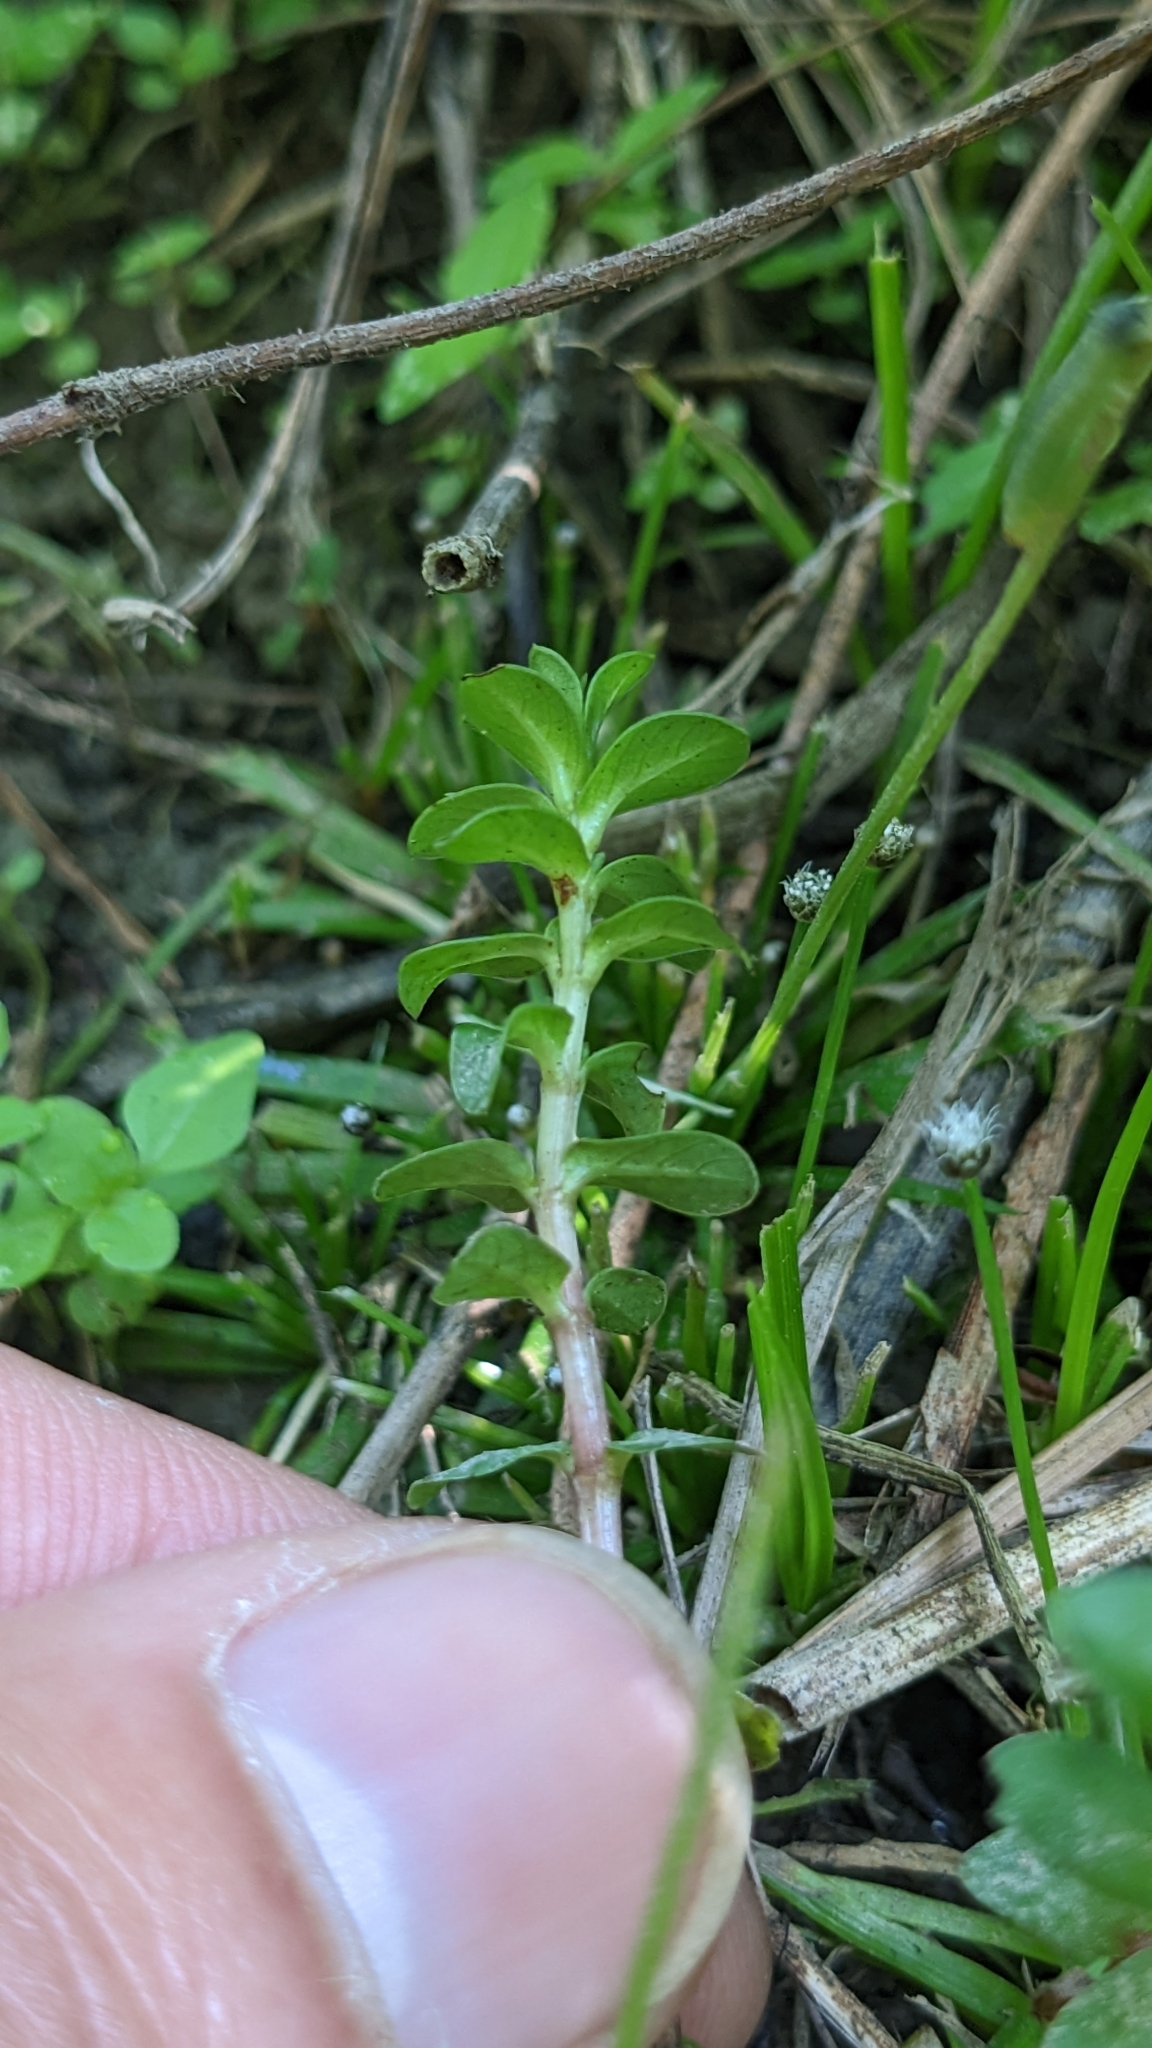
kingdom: Plantae
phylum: Tracheophyta
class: Magnoliopsida
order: Myrtales
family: Lythraceae
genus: Rotala
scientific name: Rotala indica
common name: Indian toothcup
